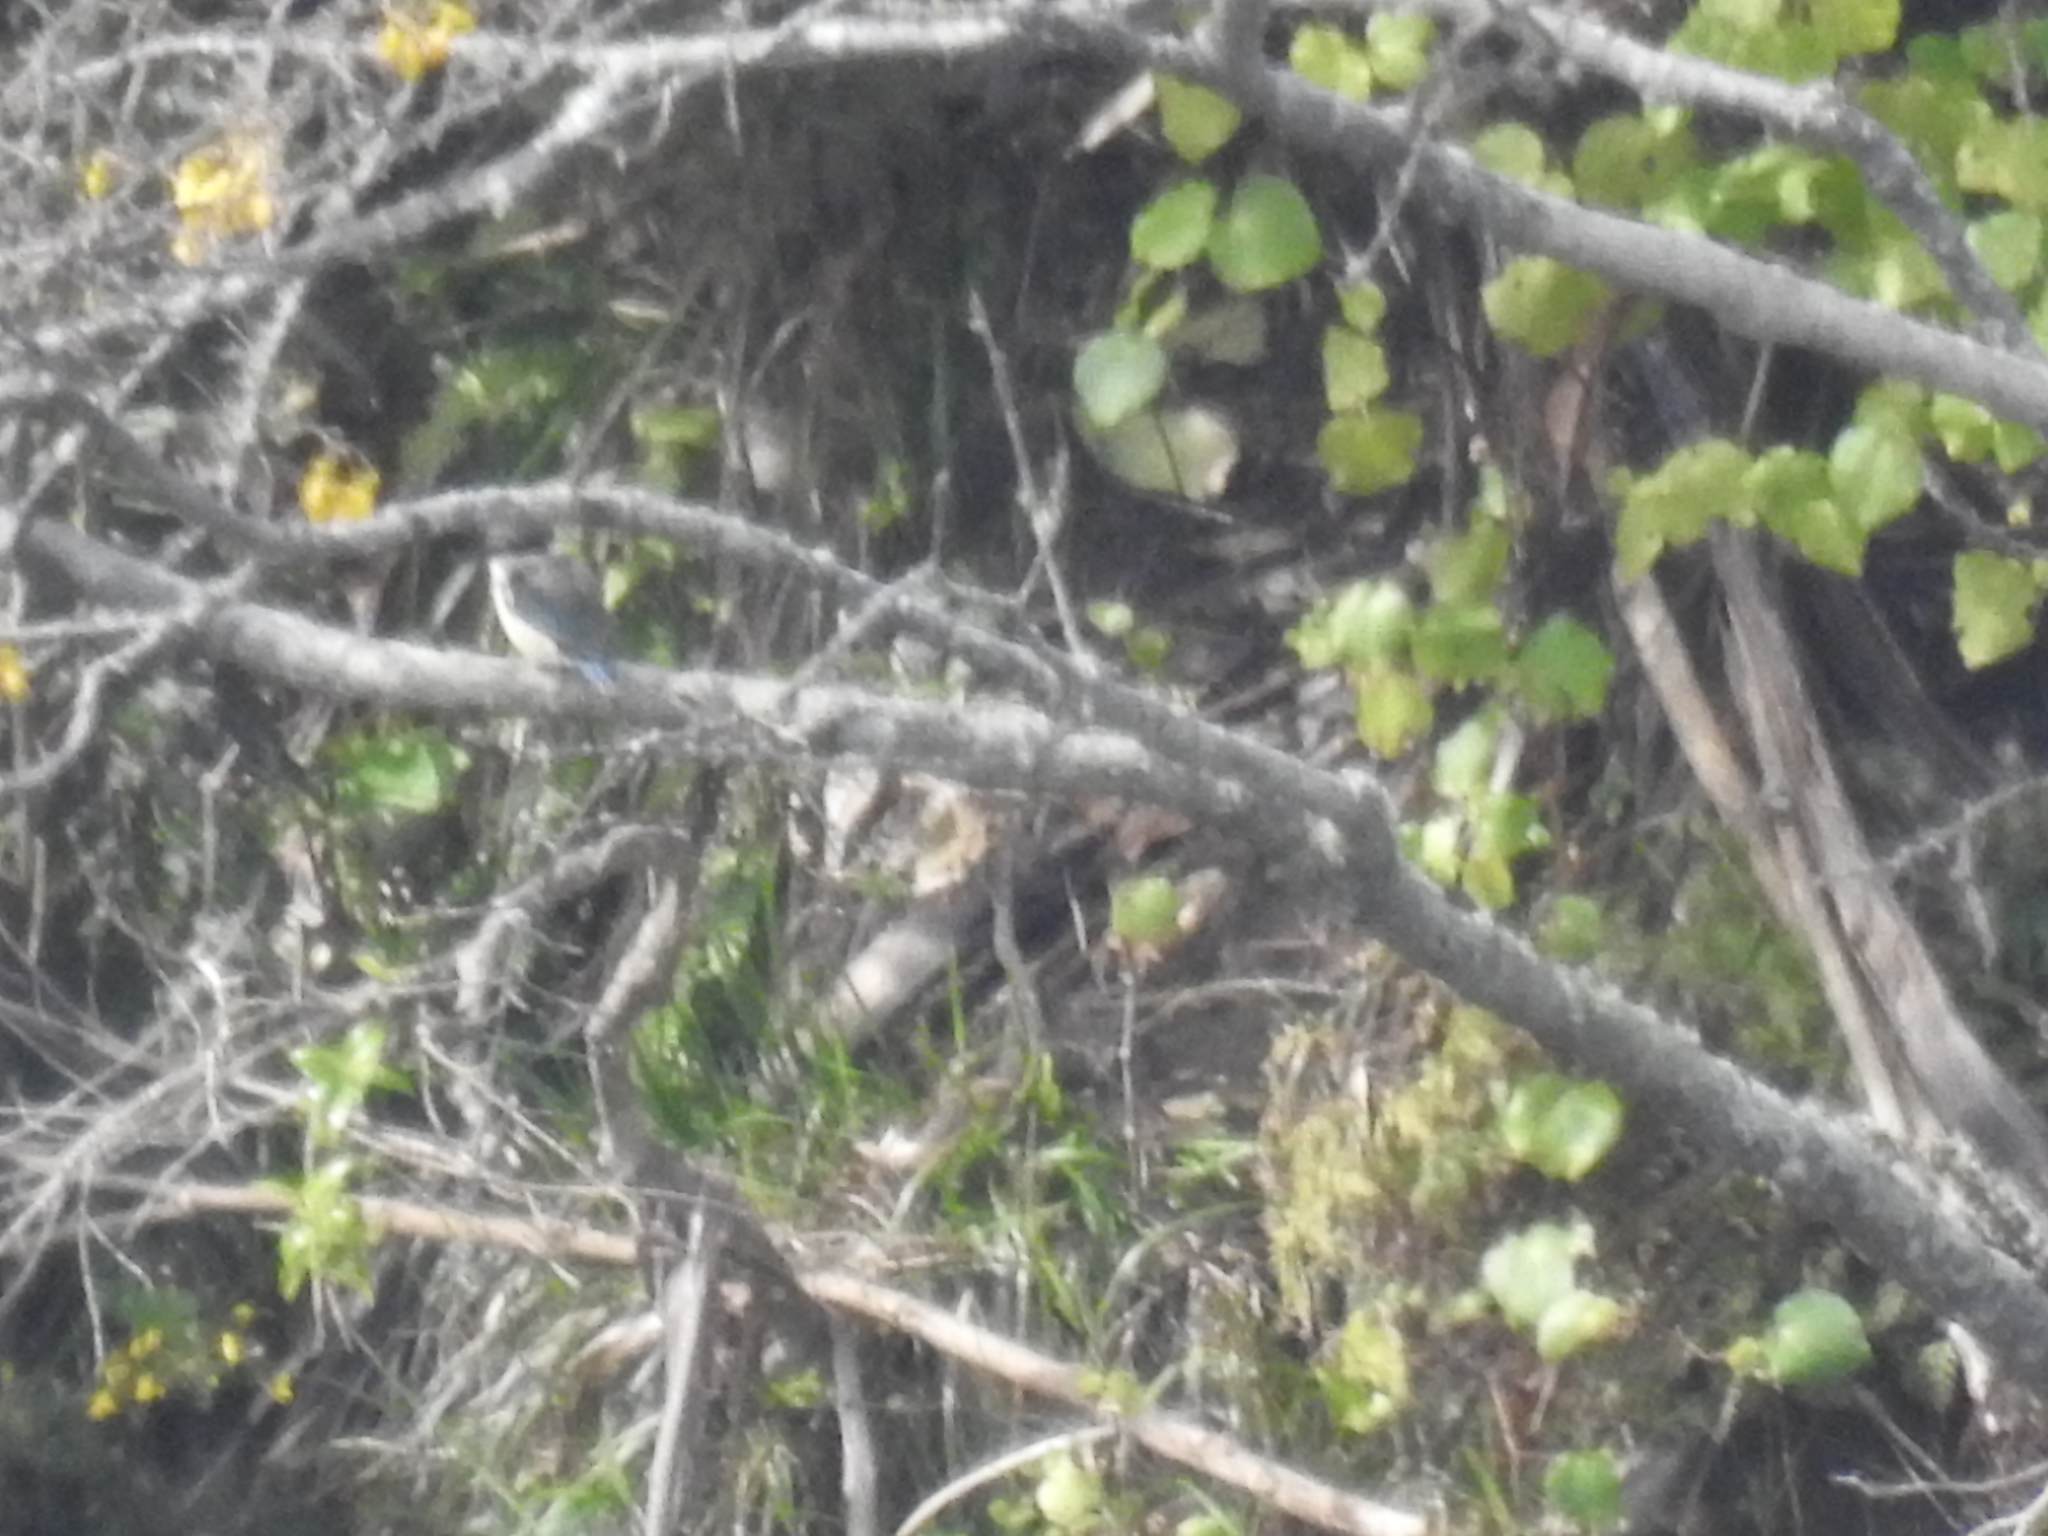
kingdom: Animalia
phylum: Chordata
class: Aves
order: Coraciiformes
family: Alcedinidae
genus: Todiramphus
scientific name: Todiramphus sanctus
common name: Sacred kingfisher
